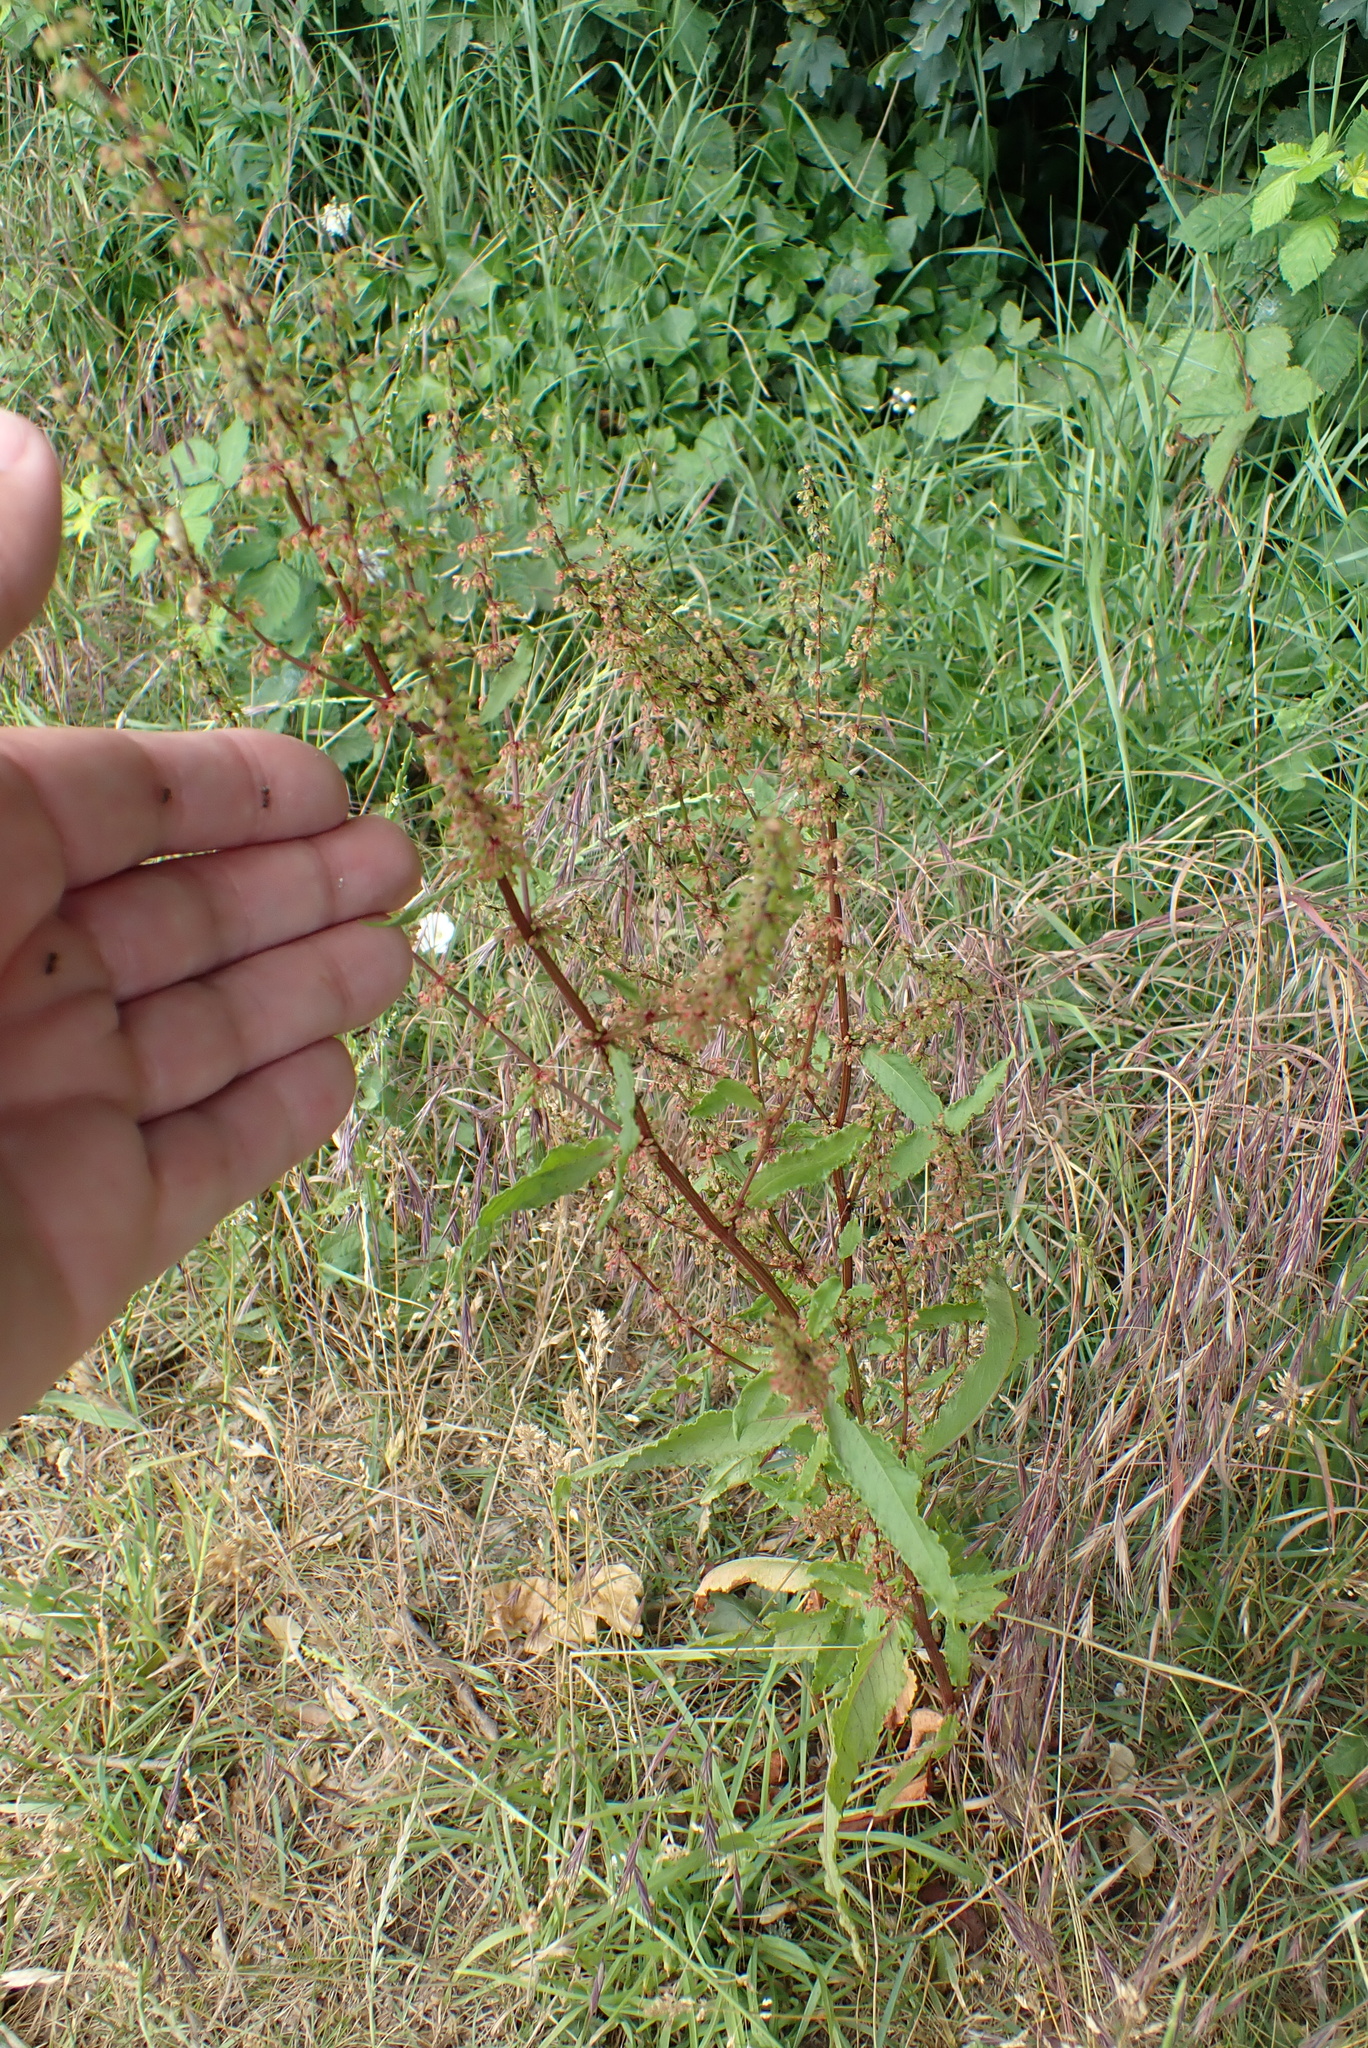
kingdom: Plantae
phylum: Tracheophyta
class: Magnoliopsida
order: Caryophyllales
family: Polygonaceae
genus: Rumex
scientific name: Rumex sanguineus
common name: Wood dock
